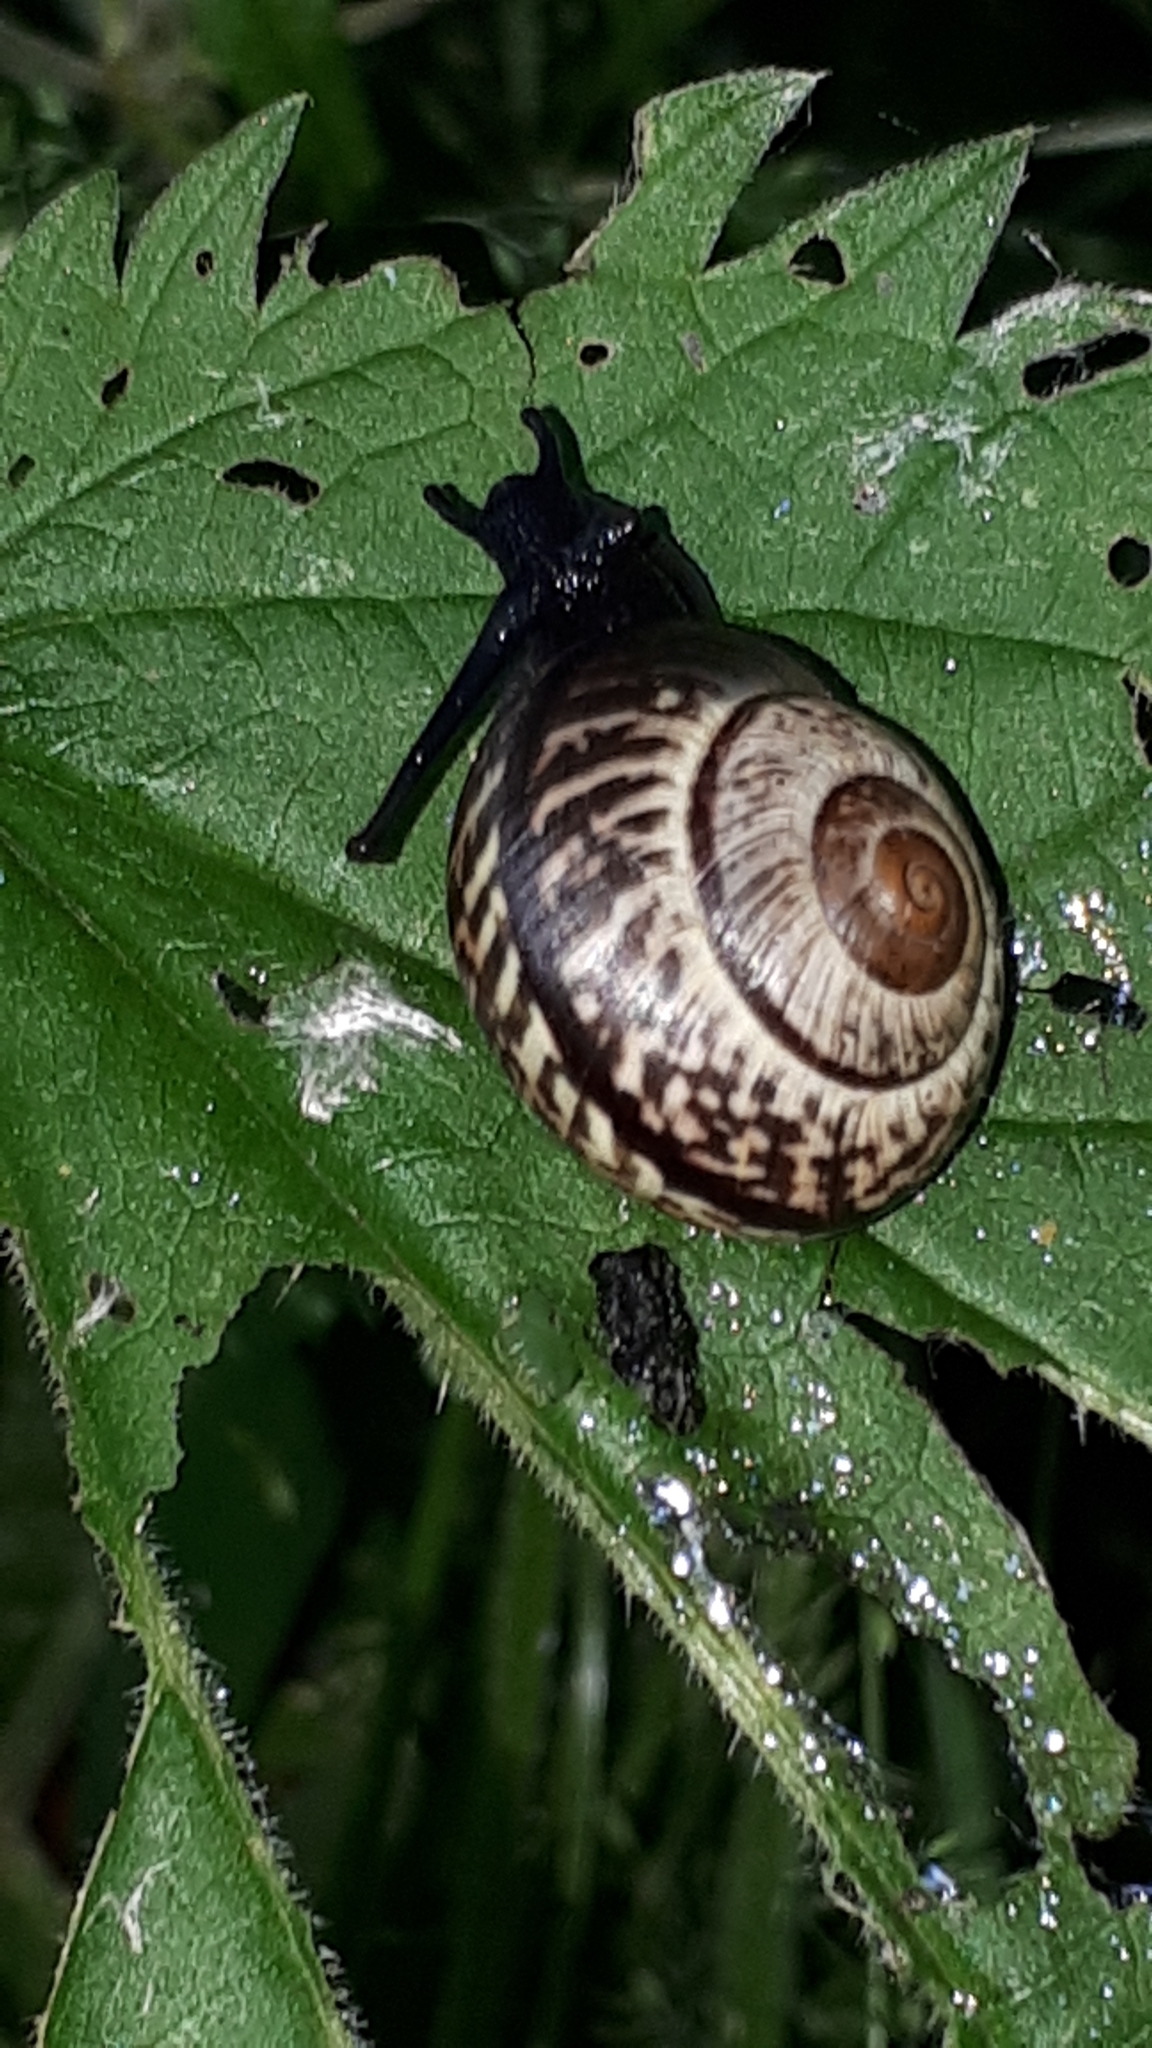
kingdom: Animalia
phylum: Mollusca
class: Gastropoda
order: Stylommatophora
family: Helicidae
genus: Arianta
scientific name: Arianta arbustorum
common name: Copse snail
